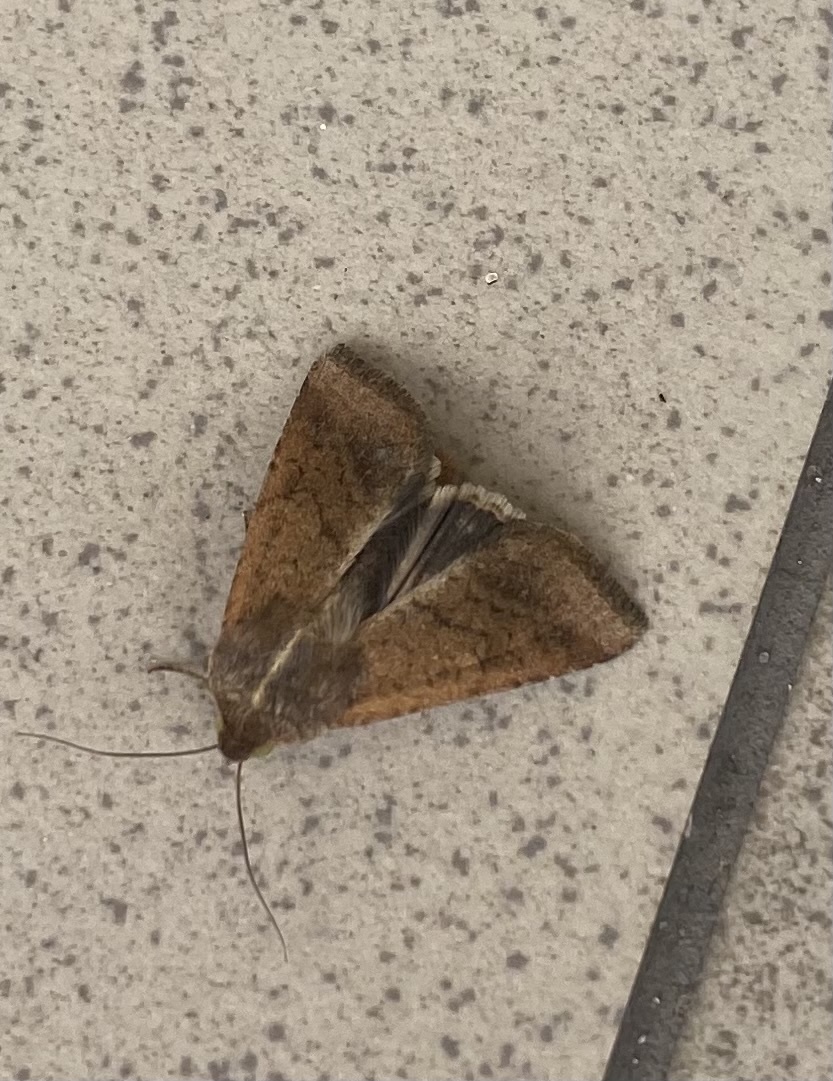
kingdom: Animalia
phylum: Arthropoda
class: Insecta
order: Lepidoptera
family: Noctuidae
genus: Helicoverpa
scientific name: Helicoverpa armigera
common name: Cotton bollworm
